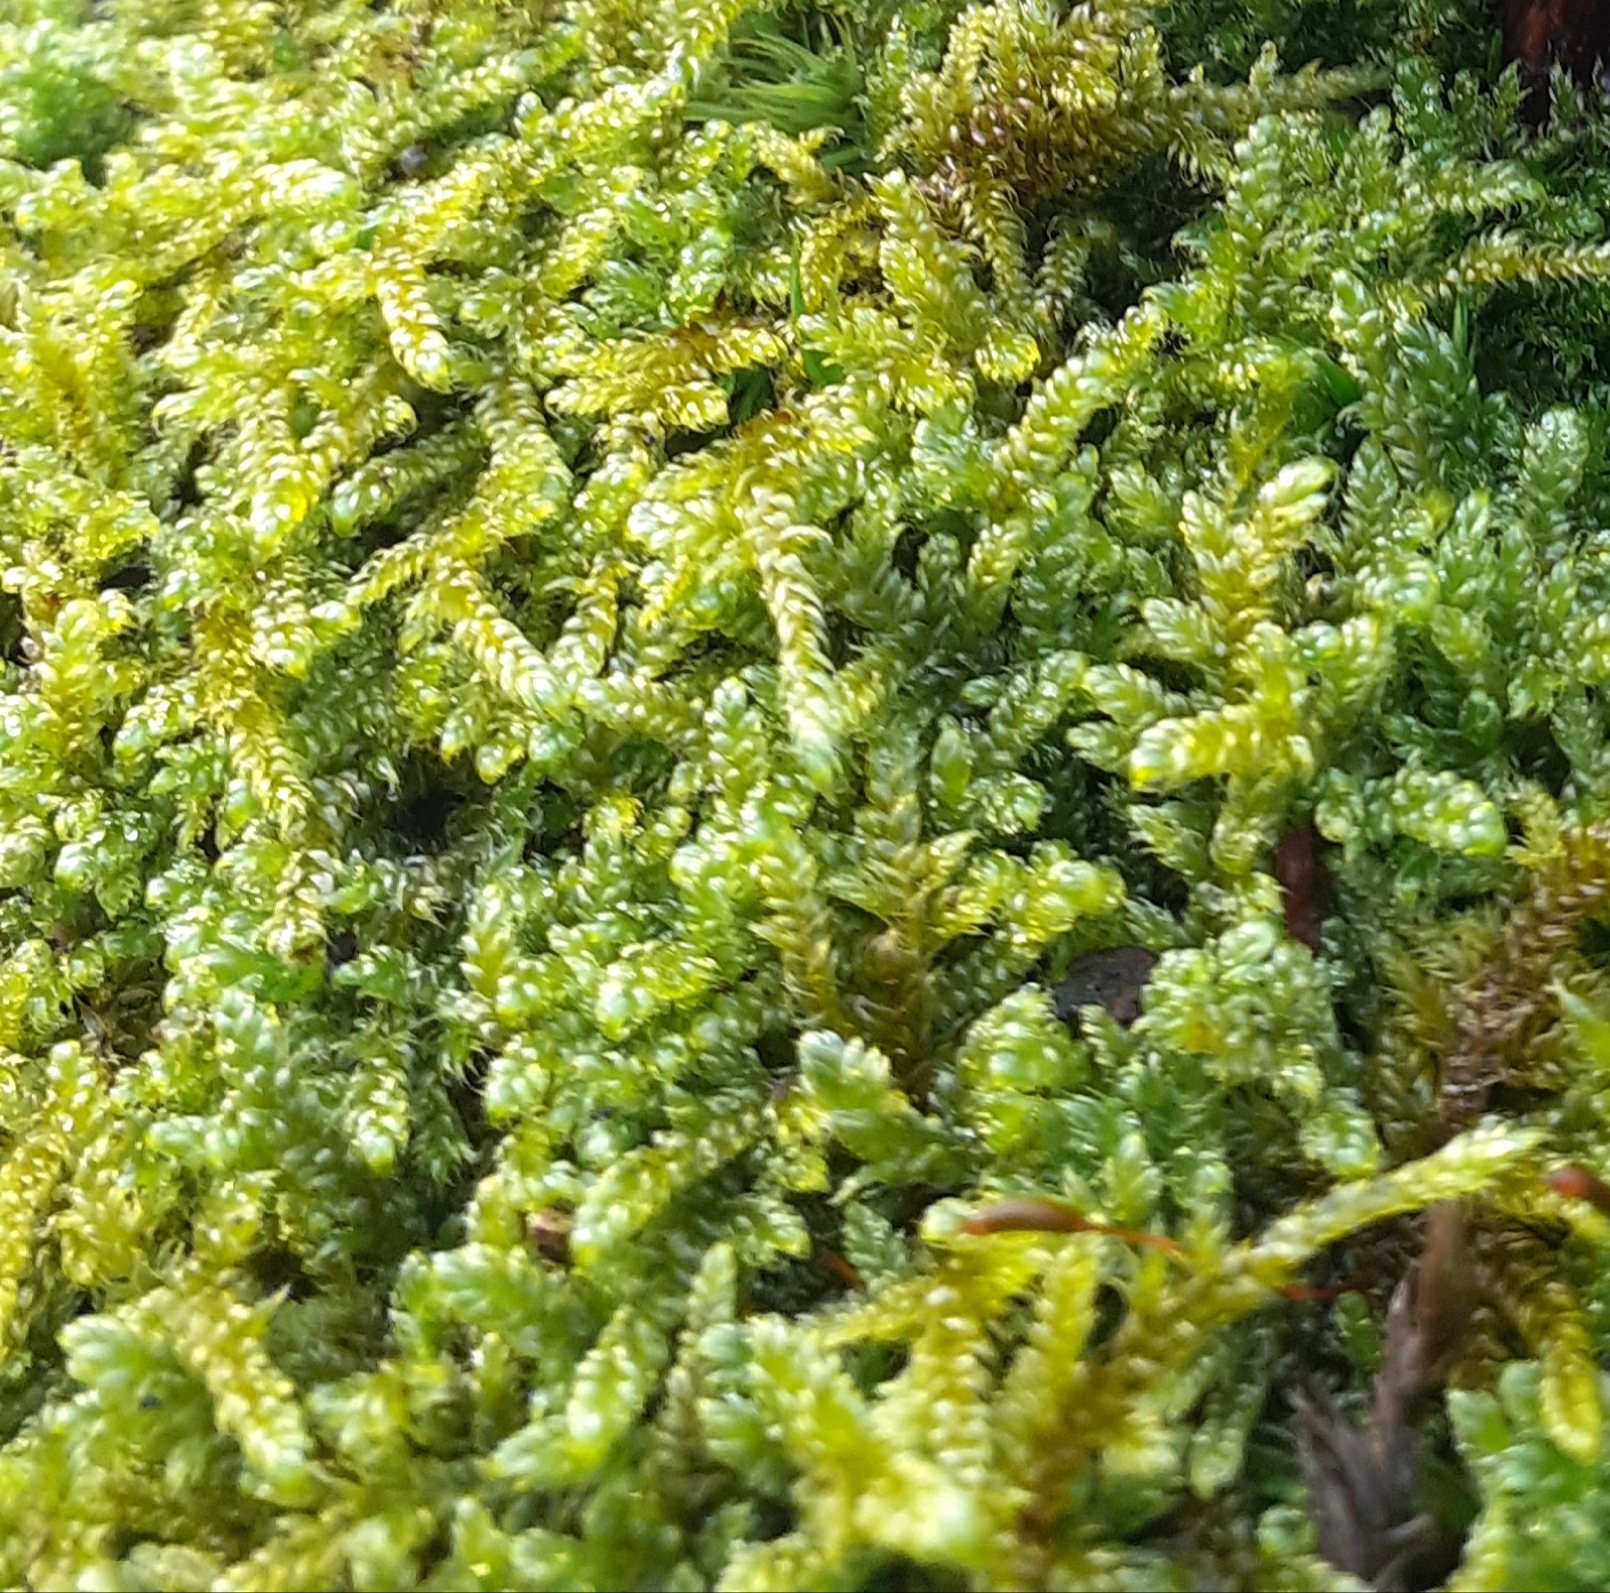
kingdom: Plantae
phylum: Bryophyta
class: Bryopsida
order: Hypnales
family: Hypnaceae
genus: Hypnum
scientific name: Hypnum cupressiforme
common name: Cypress-leaved plait-moss
